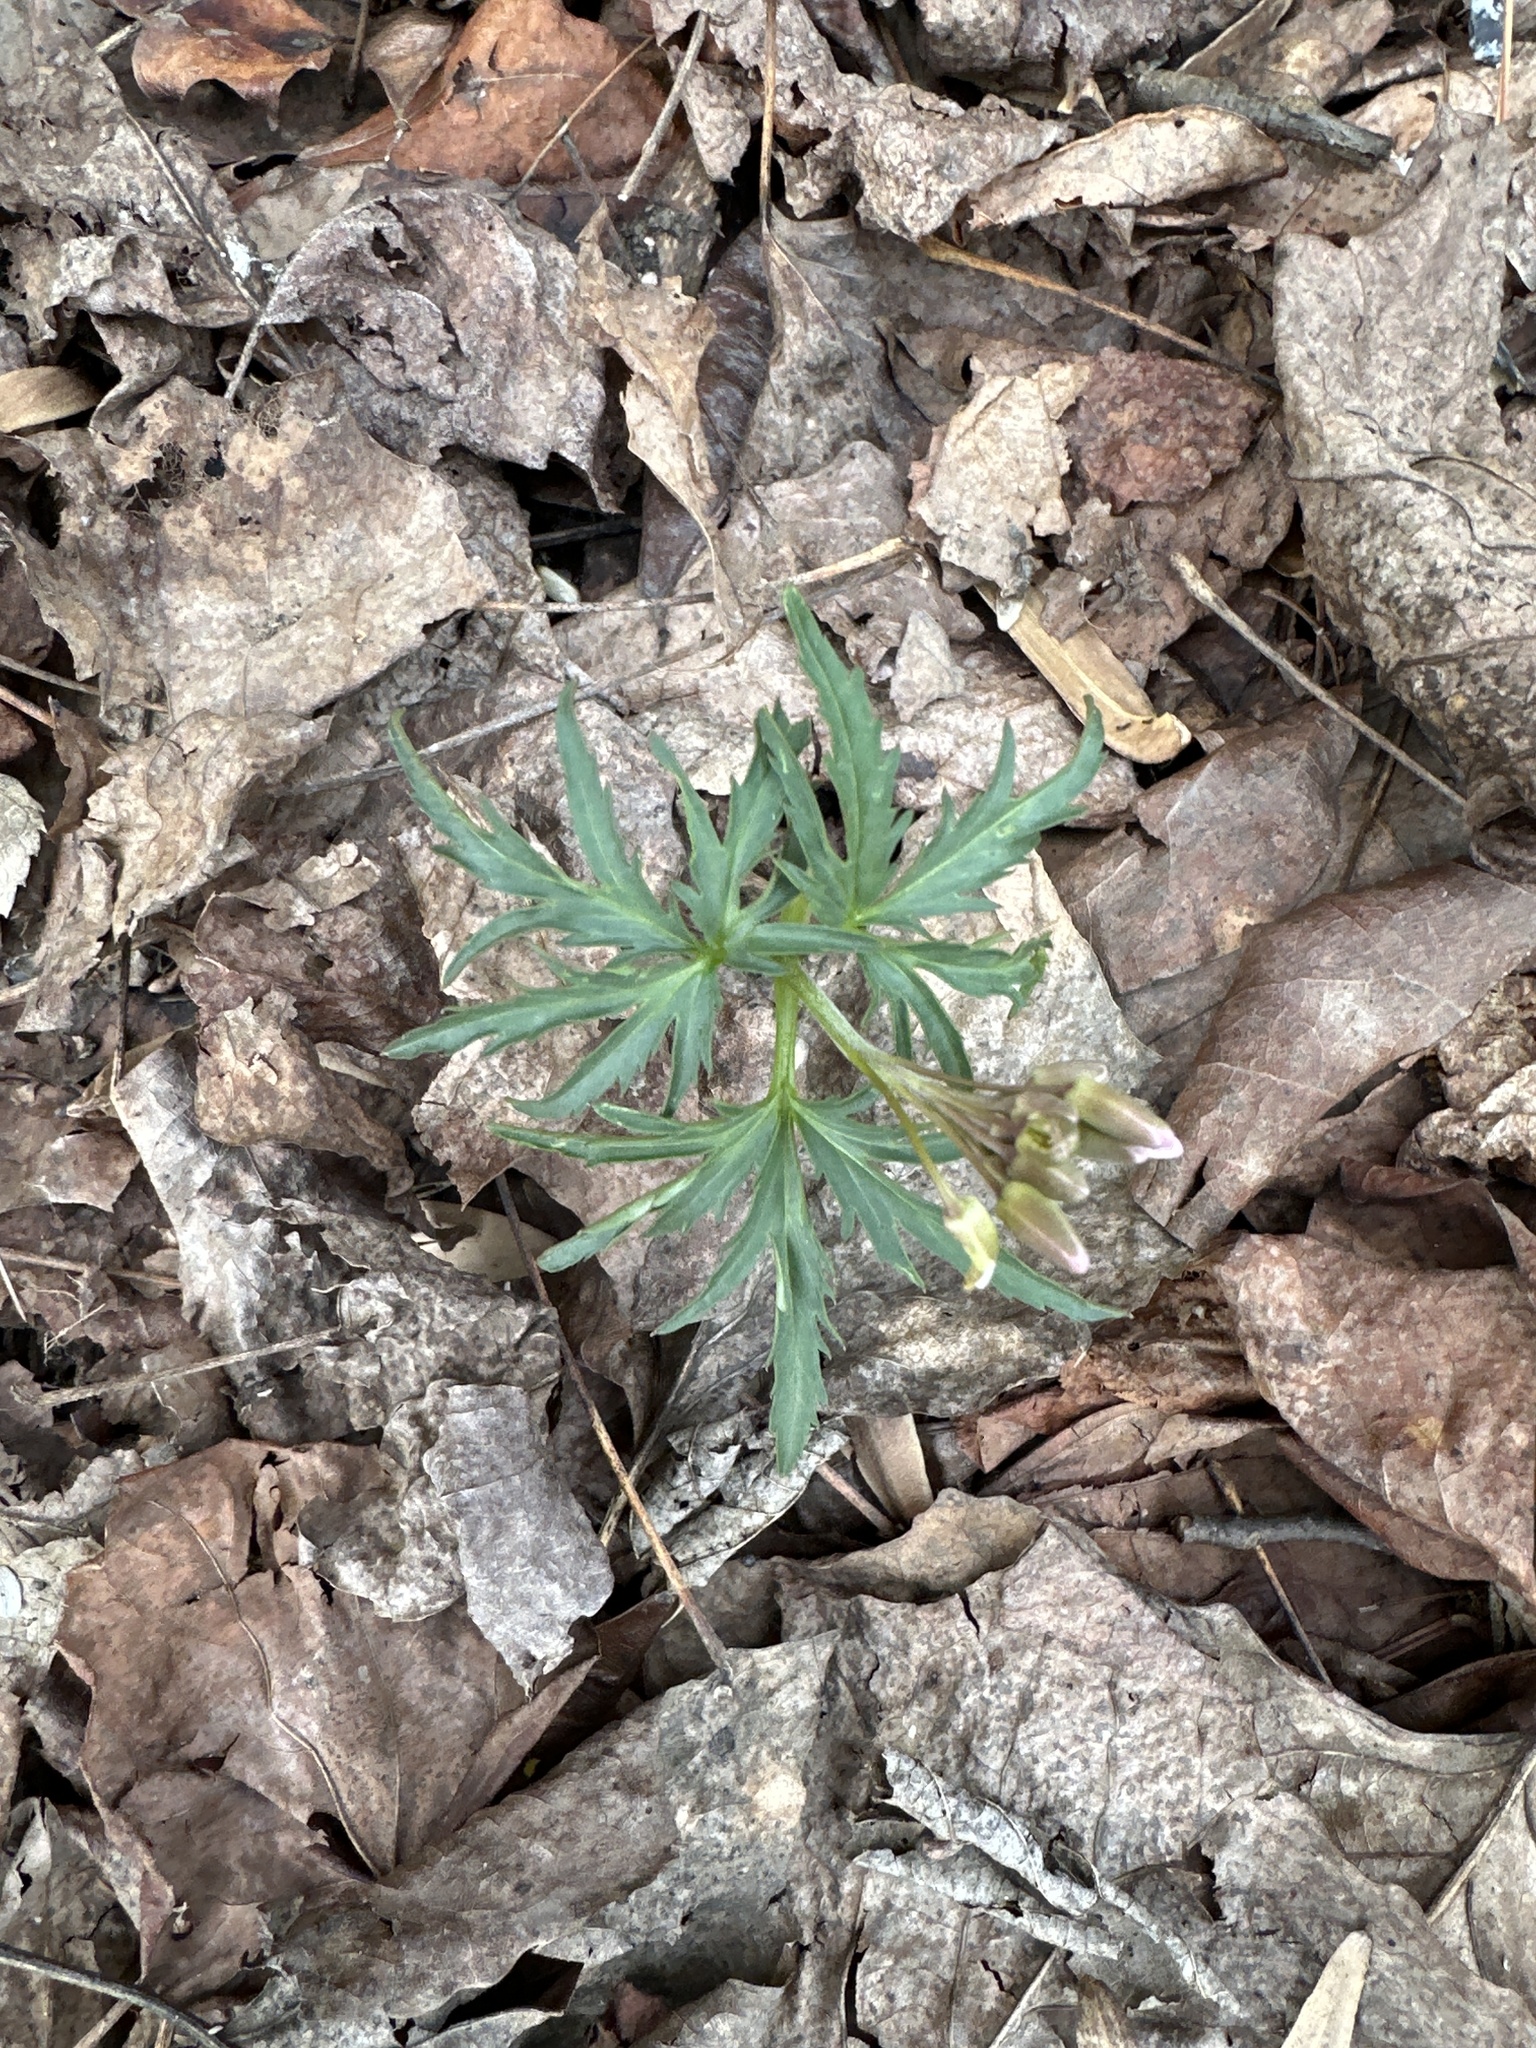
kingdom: Plantae
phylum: Tracheophyta
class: Magnoliopsida
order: Brassicales
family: Brassicaceae
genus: Cardamine
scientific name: Cardamine concatenata
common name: Cut-leaf toothcup
